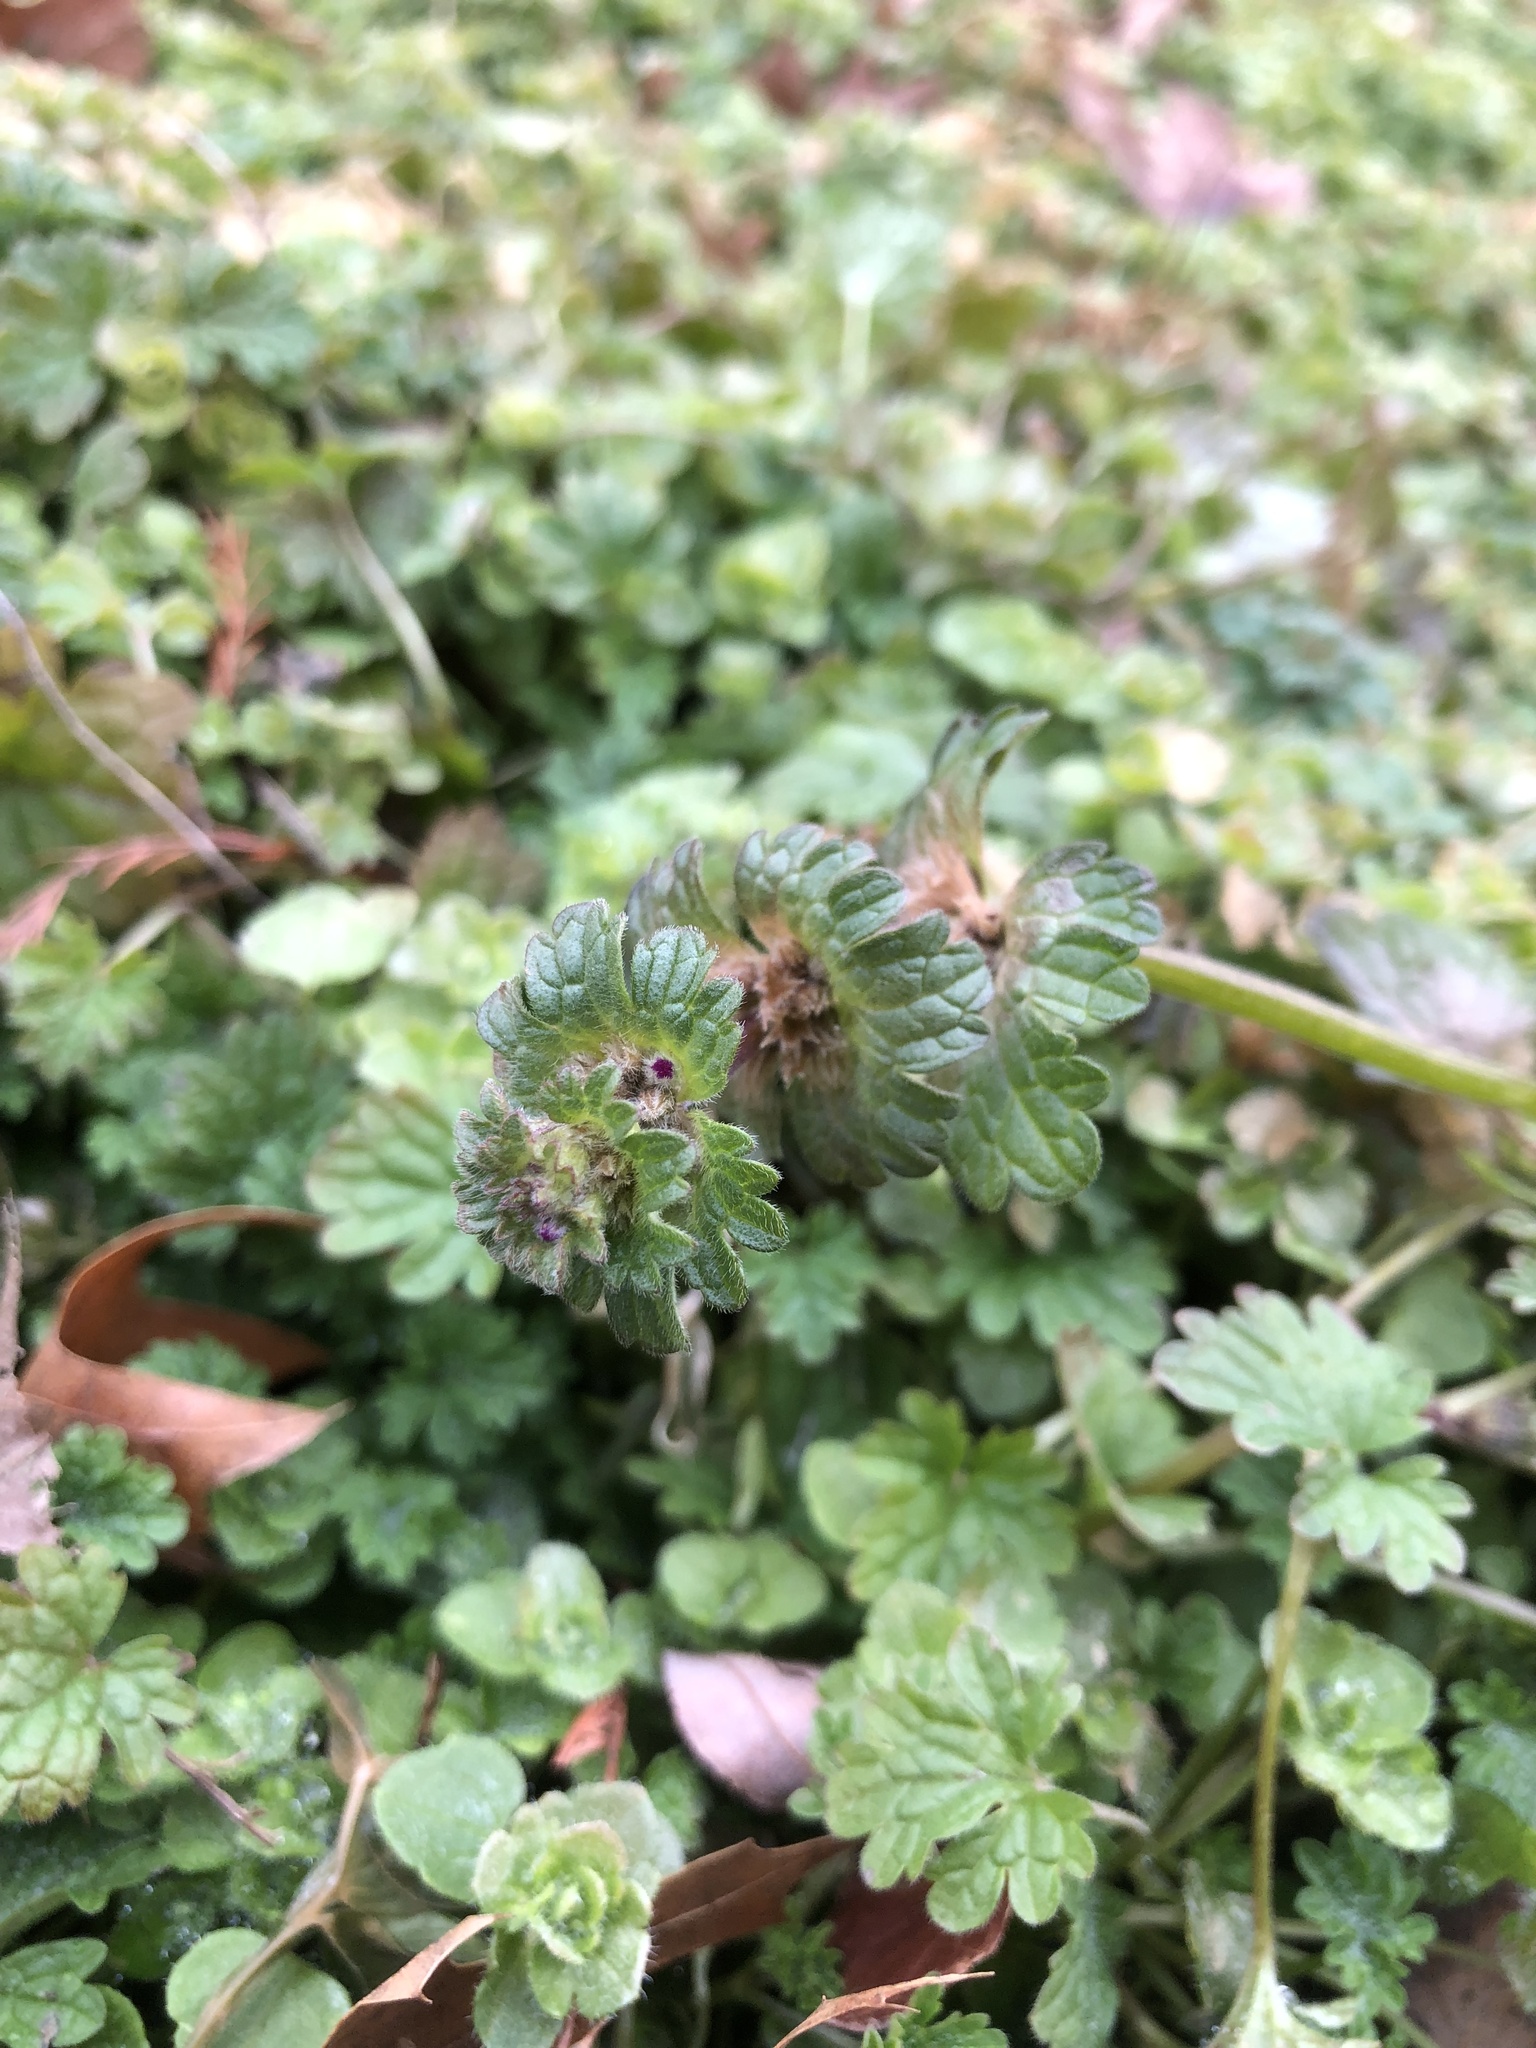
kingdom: Plantae
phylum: Tracheophyta
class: Magnoliopsida
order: Lamiales
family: Lamiaceae
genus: Lamium
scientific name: Lamium amplexicaule
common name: Henbit dead-nettle
